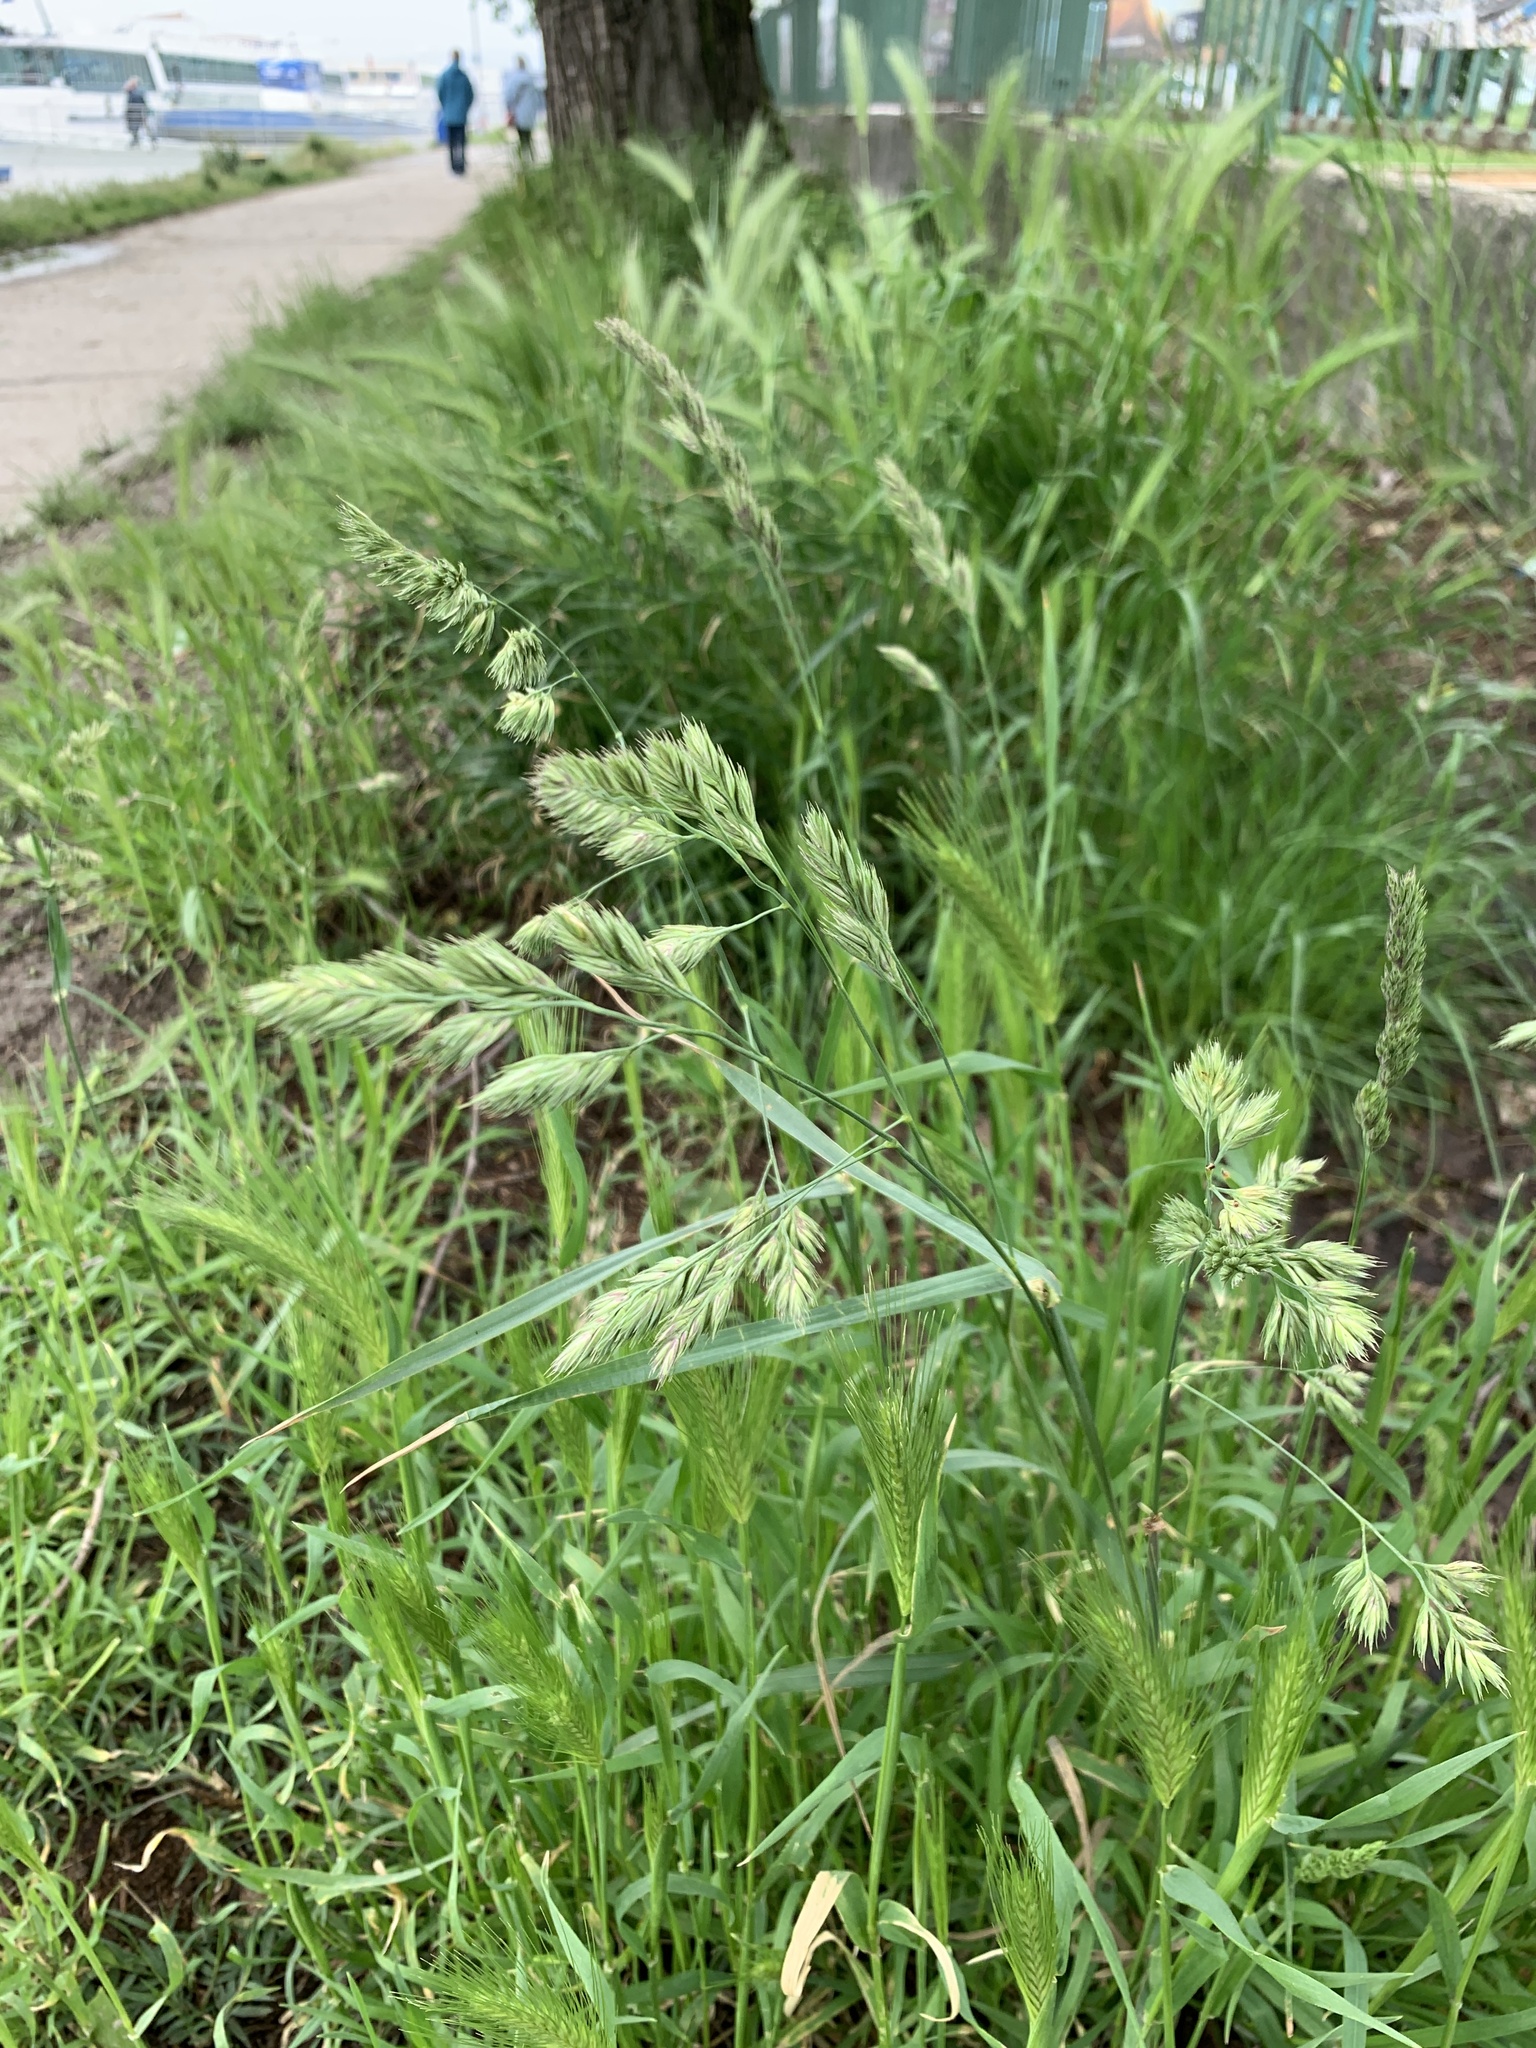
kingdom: Plantae
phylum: Tracheophyta
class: Liliopsida
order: Poales
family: Poaceae
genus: Dactylis
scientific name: Dactylis glomerata
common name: Orchardgrass
